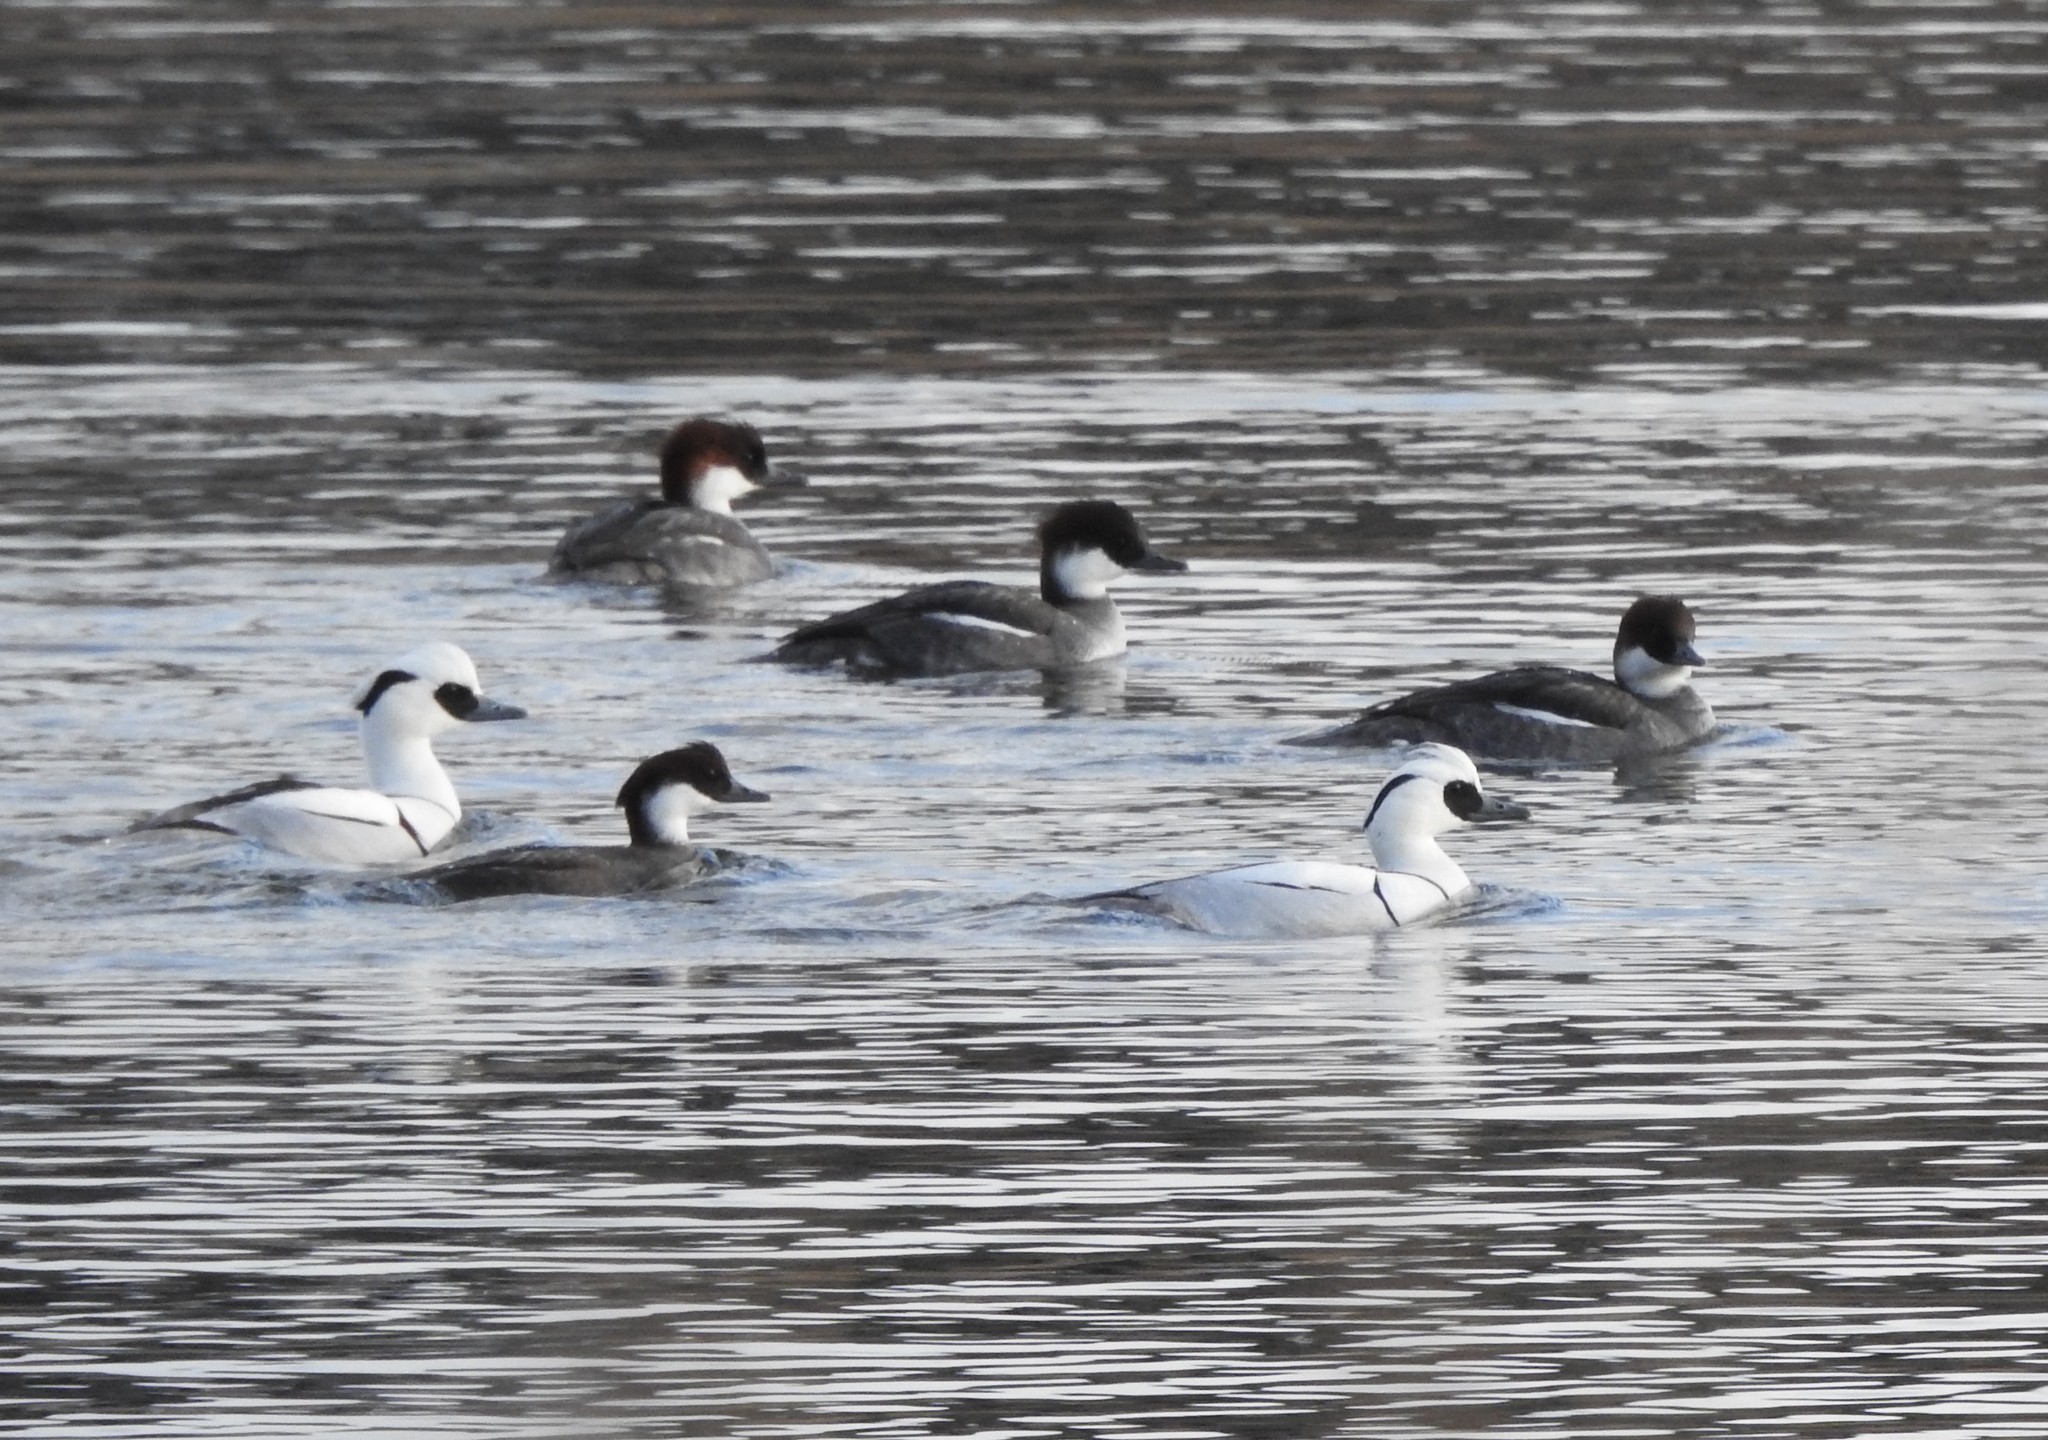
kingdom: Animalia
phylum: Chordata
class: Aves
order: Anseriformes
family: Anatidae
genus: Mergellus
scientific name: Mergellus albellus
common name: Smew
